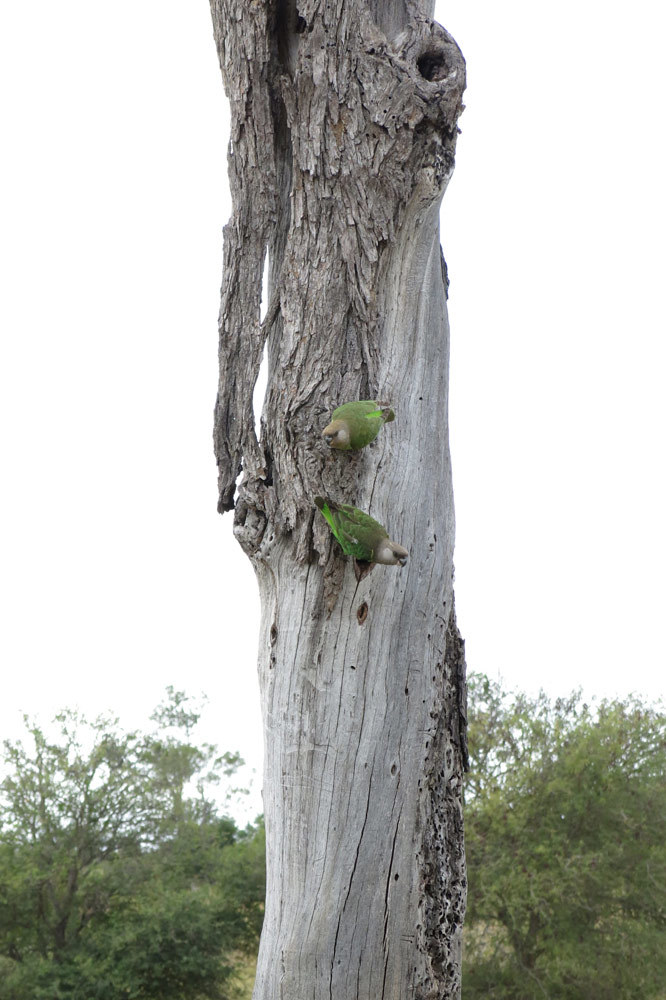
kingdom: Animalia
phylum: Chordata
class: Aves
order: Psittaciformes
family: Psittacidae
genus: Poicephalus
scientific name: Poicephalus cryptoxanthus
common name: Brown-headed parrot
